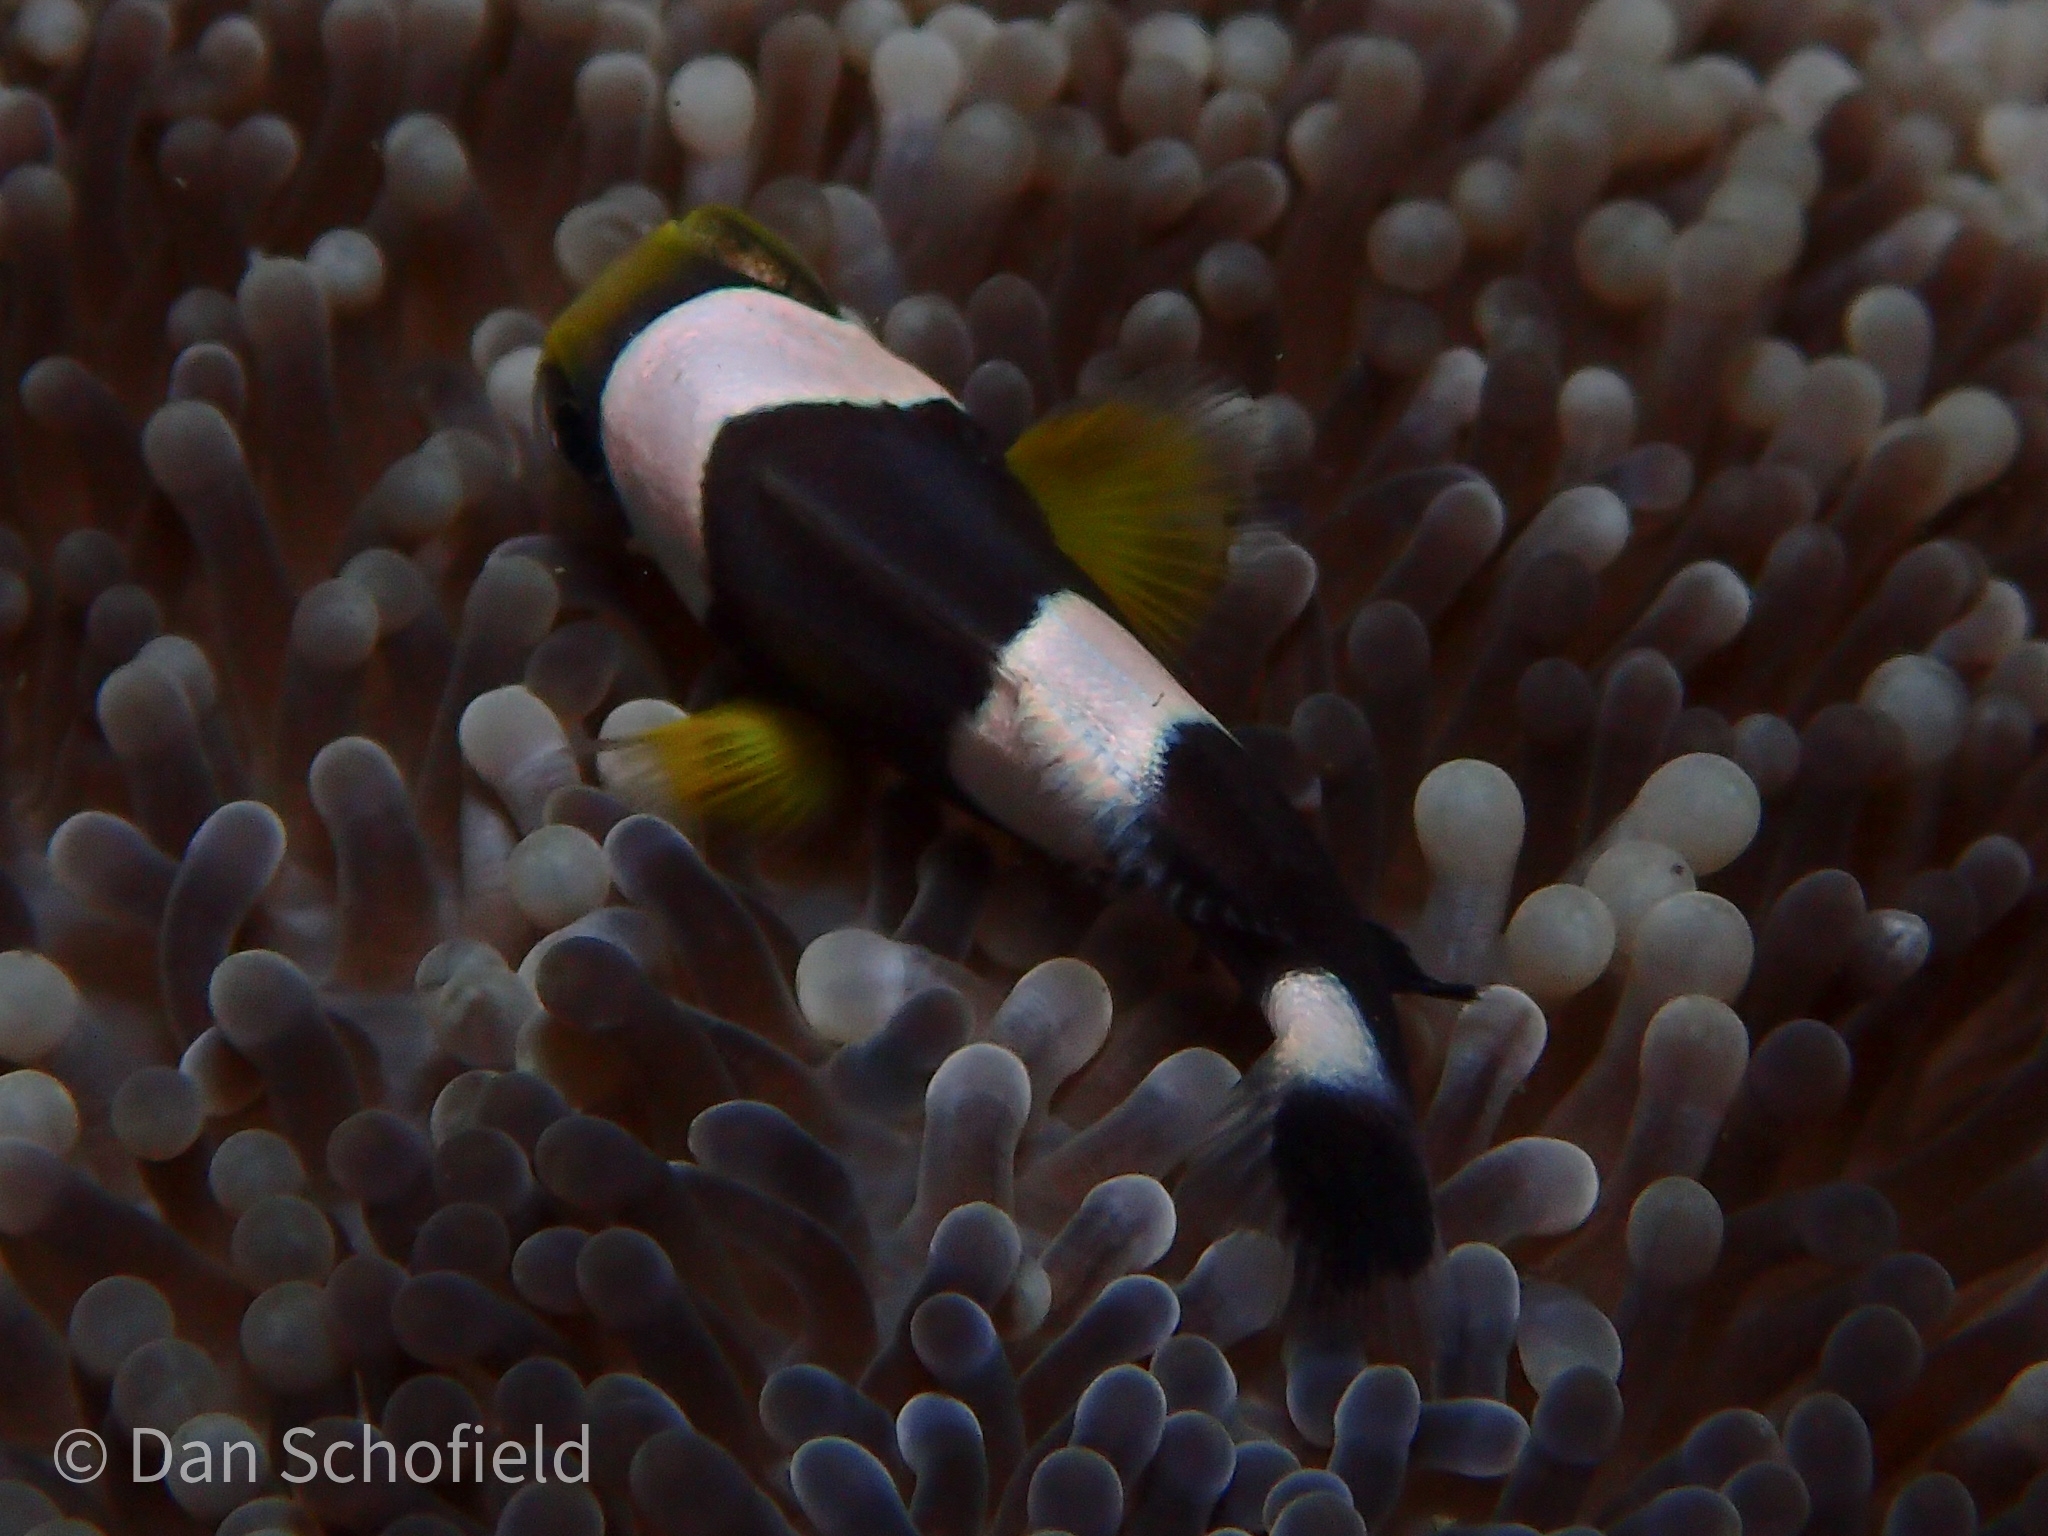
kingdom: Animalia
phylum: Chordata
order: Perciformes
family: Pomacentridae
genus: Amphiprion
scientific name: Amphiprion polymnus
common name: Saddleback anemonefish
